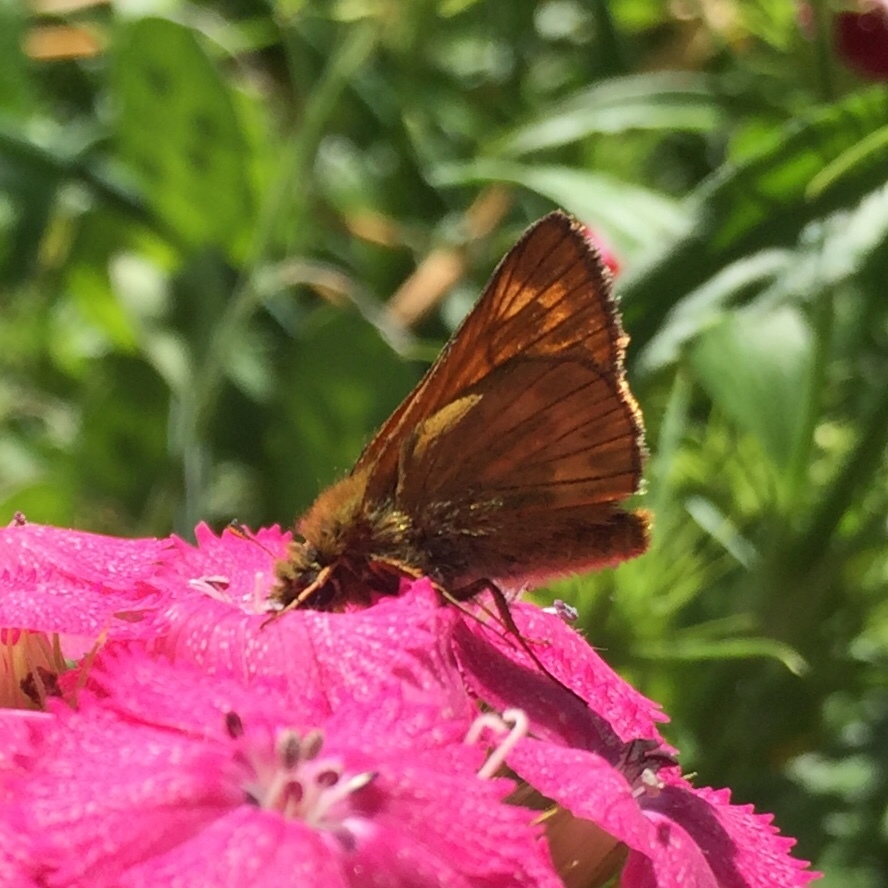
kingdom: Animalia
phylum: Arthropoda
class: Insecta
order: Lepidoptera
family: Hesperiidae
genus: Ochlodes
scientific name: Ochlodes venata
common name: Large skipper
